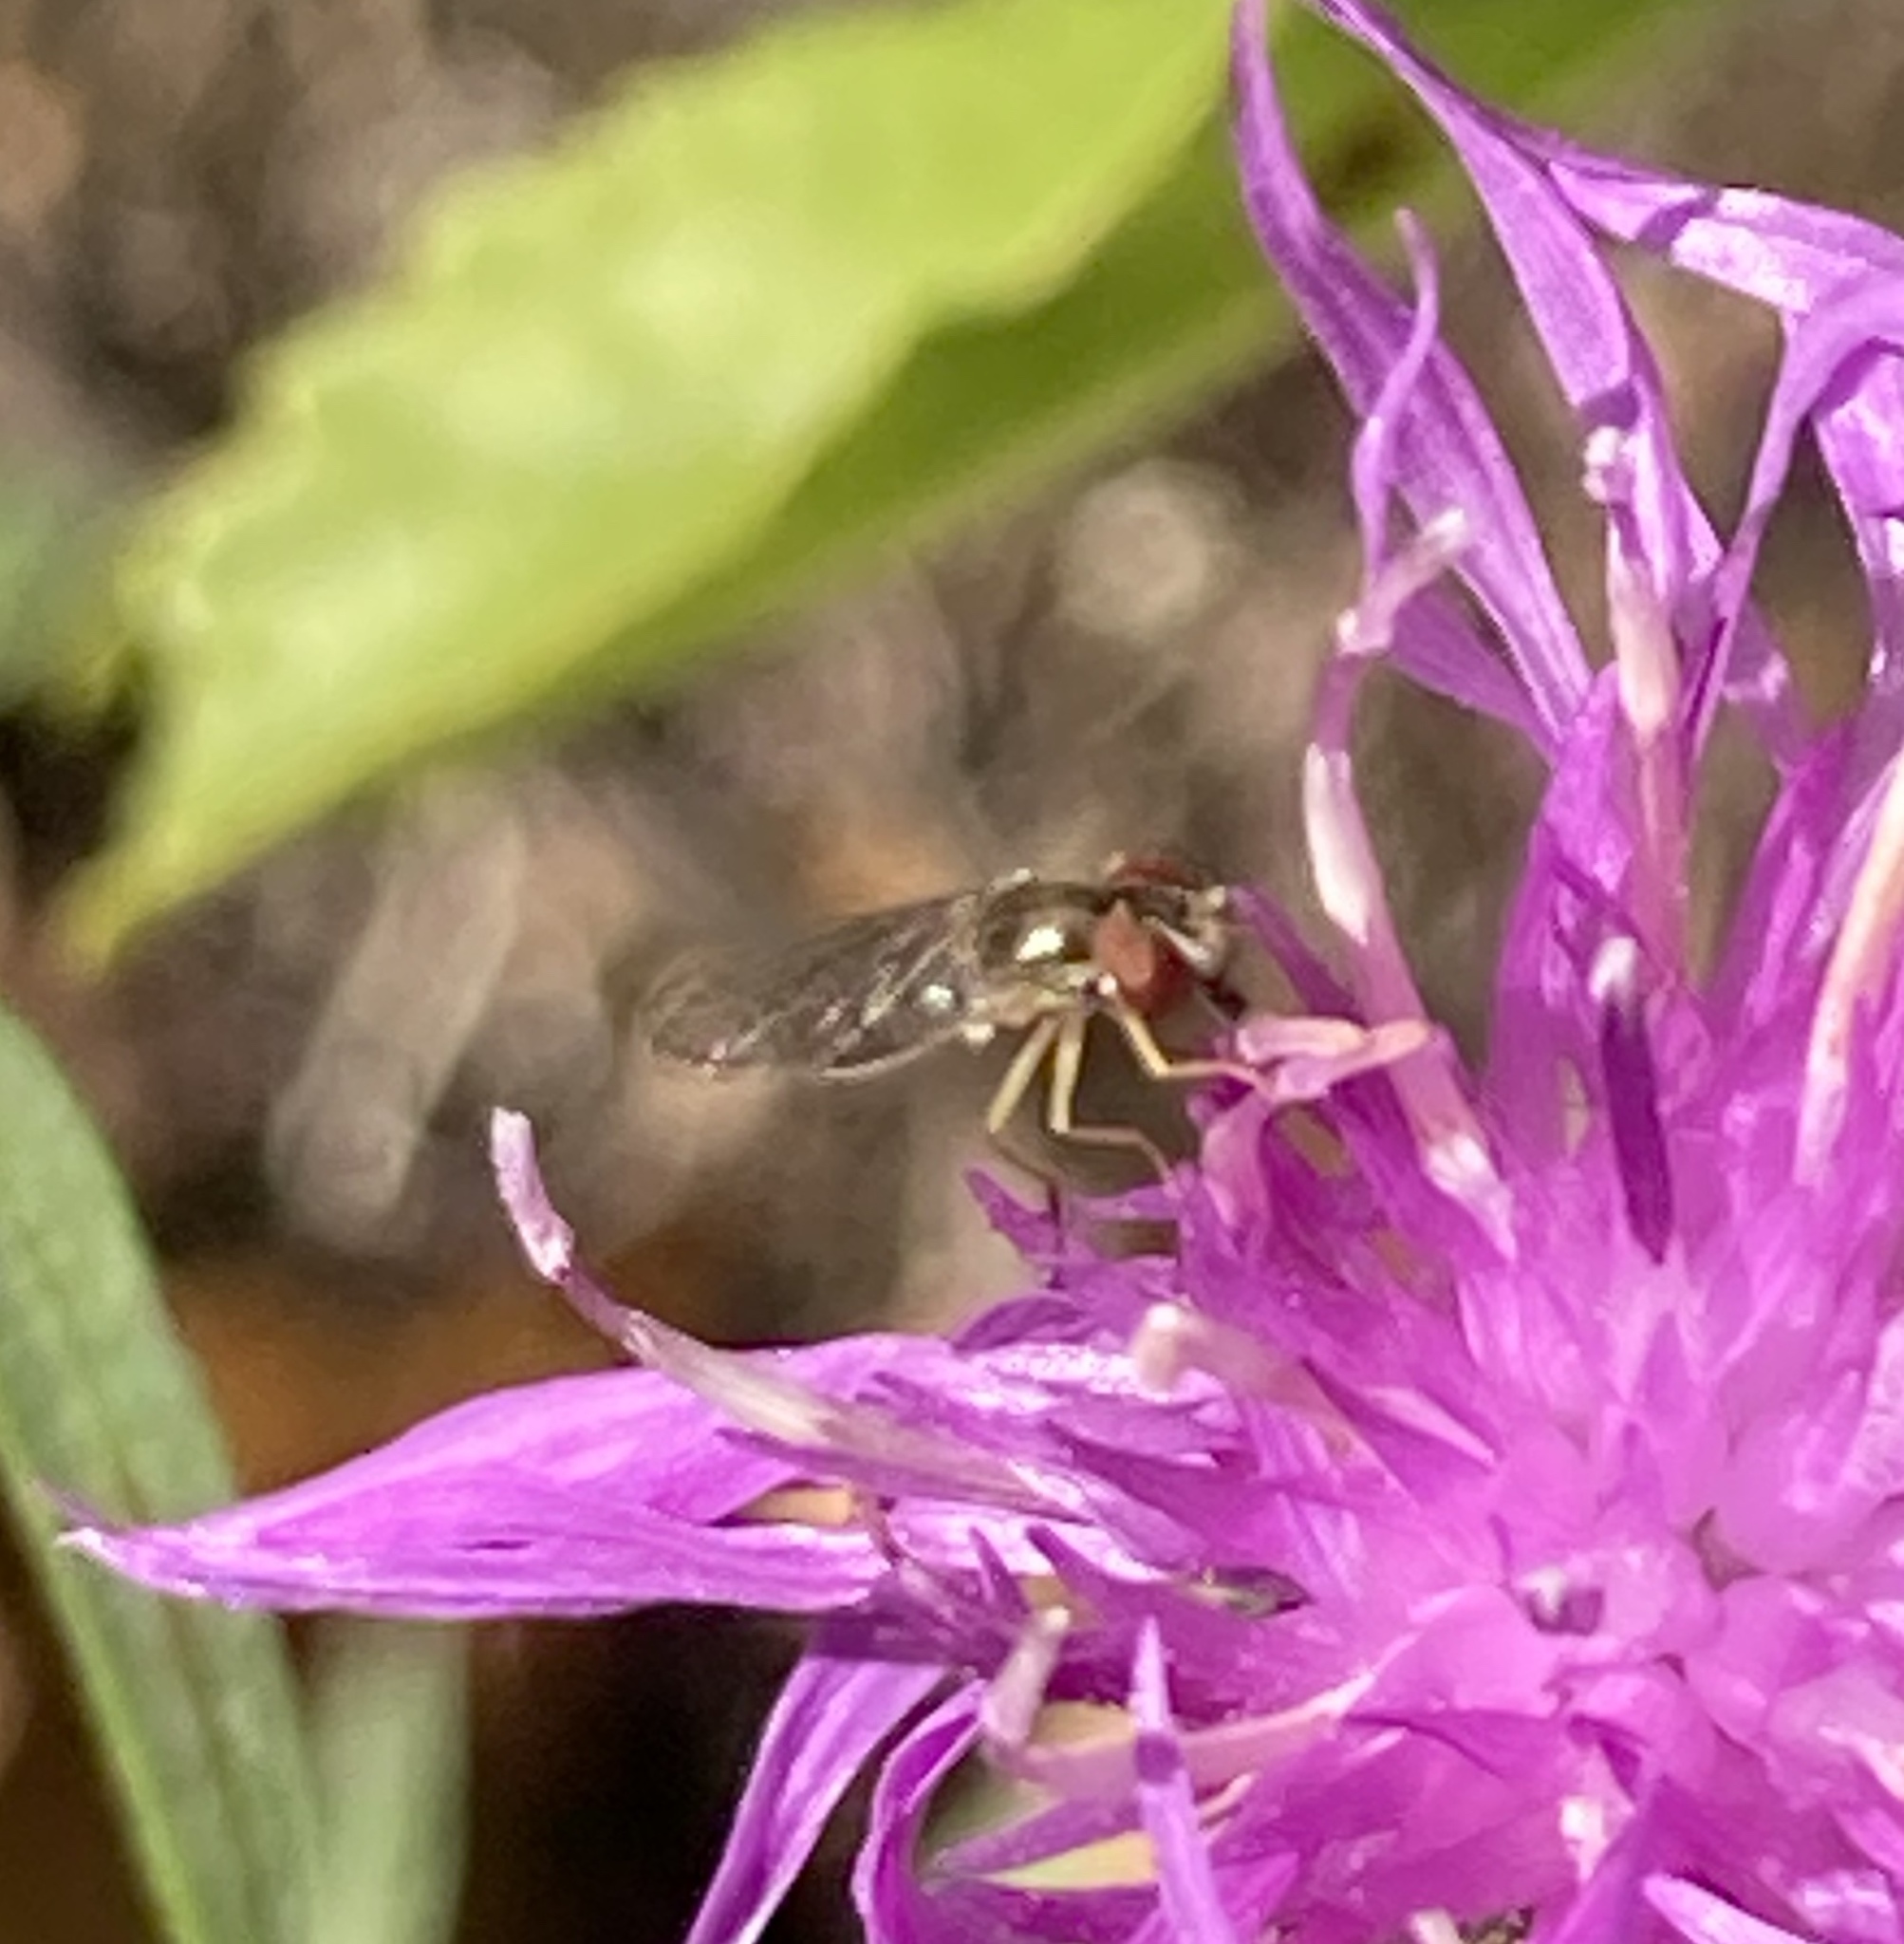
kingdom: Animalia
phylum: Arthropoda
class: Insecta
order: Diptera
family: Syrphidae
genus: Toxomerus
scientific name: Toxomerus marginatus
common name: Syrphid fly
